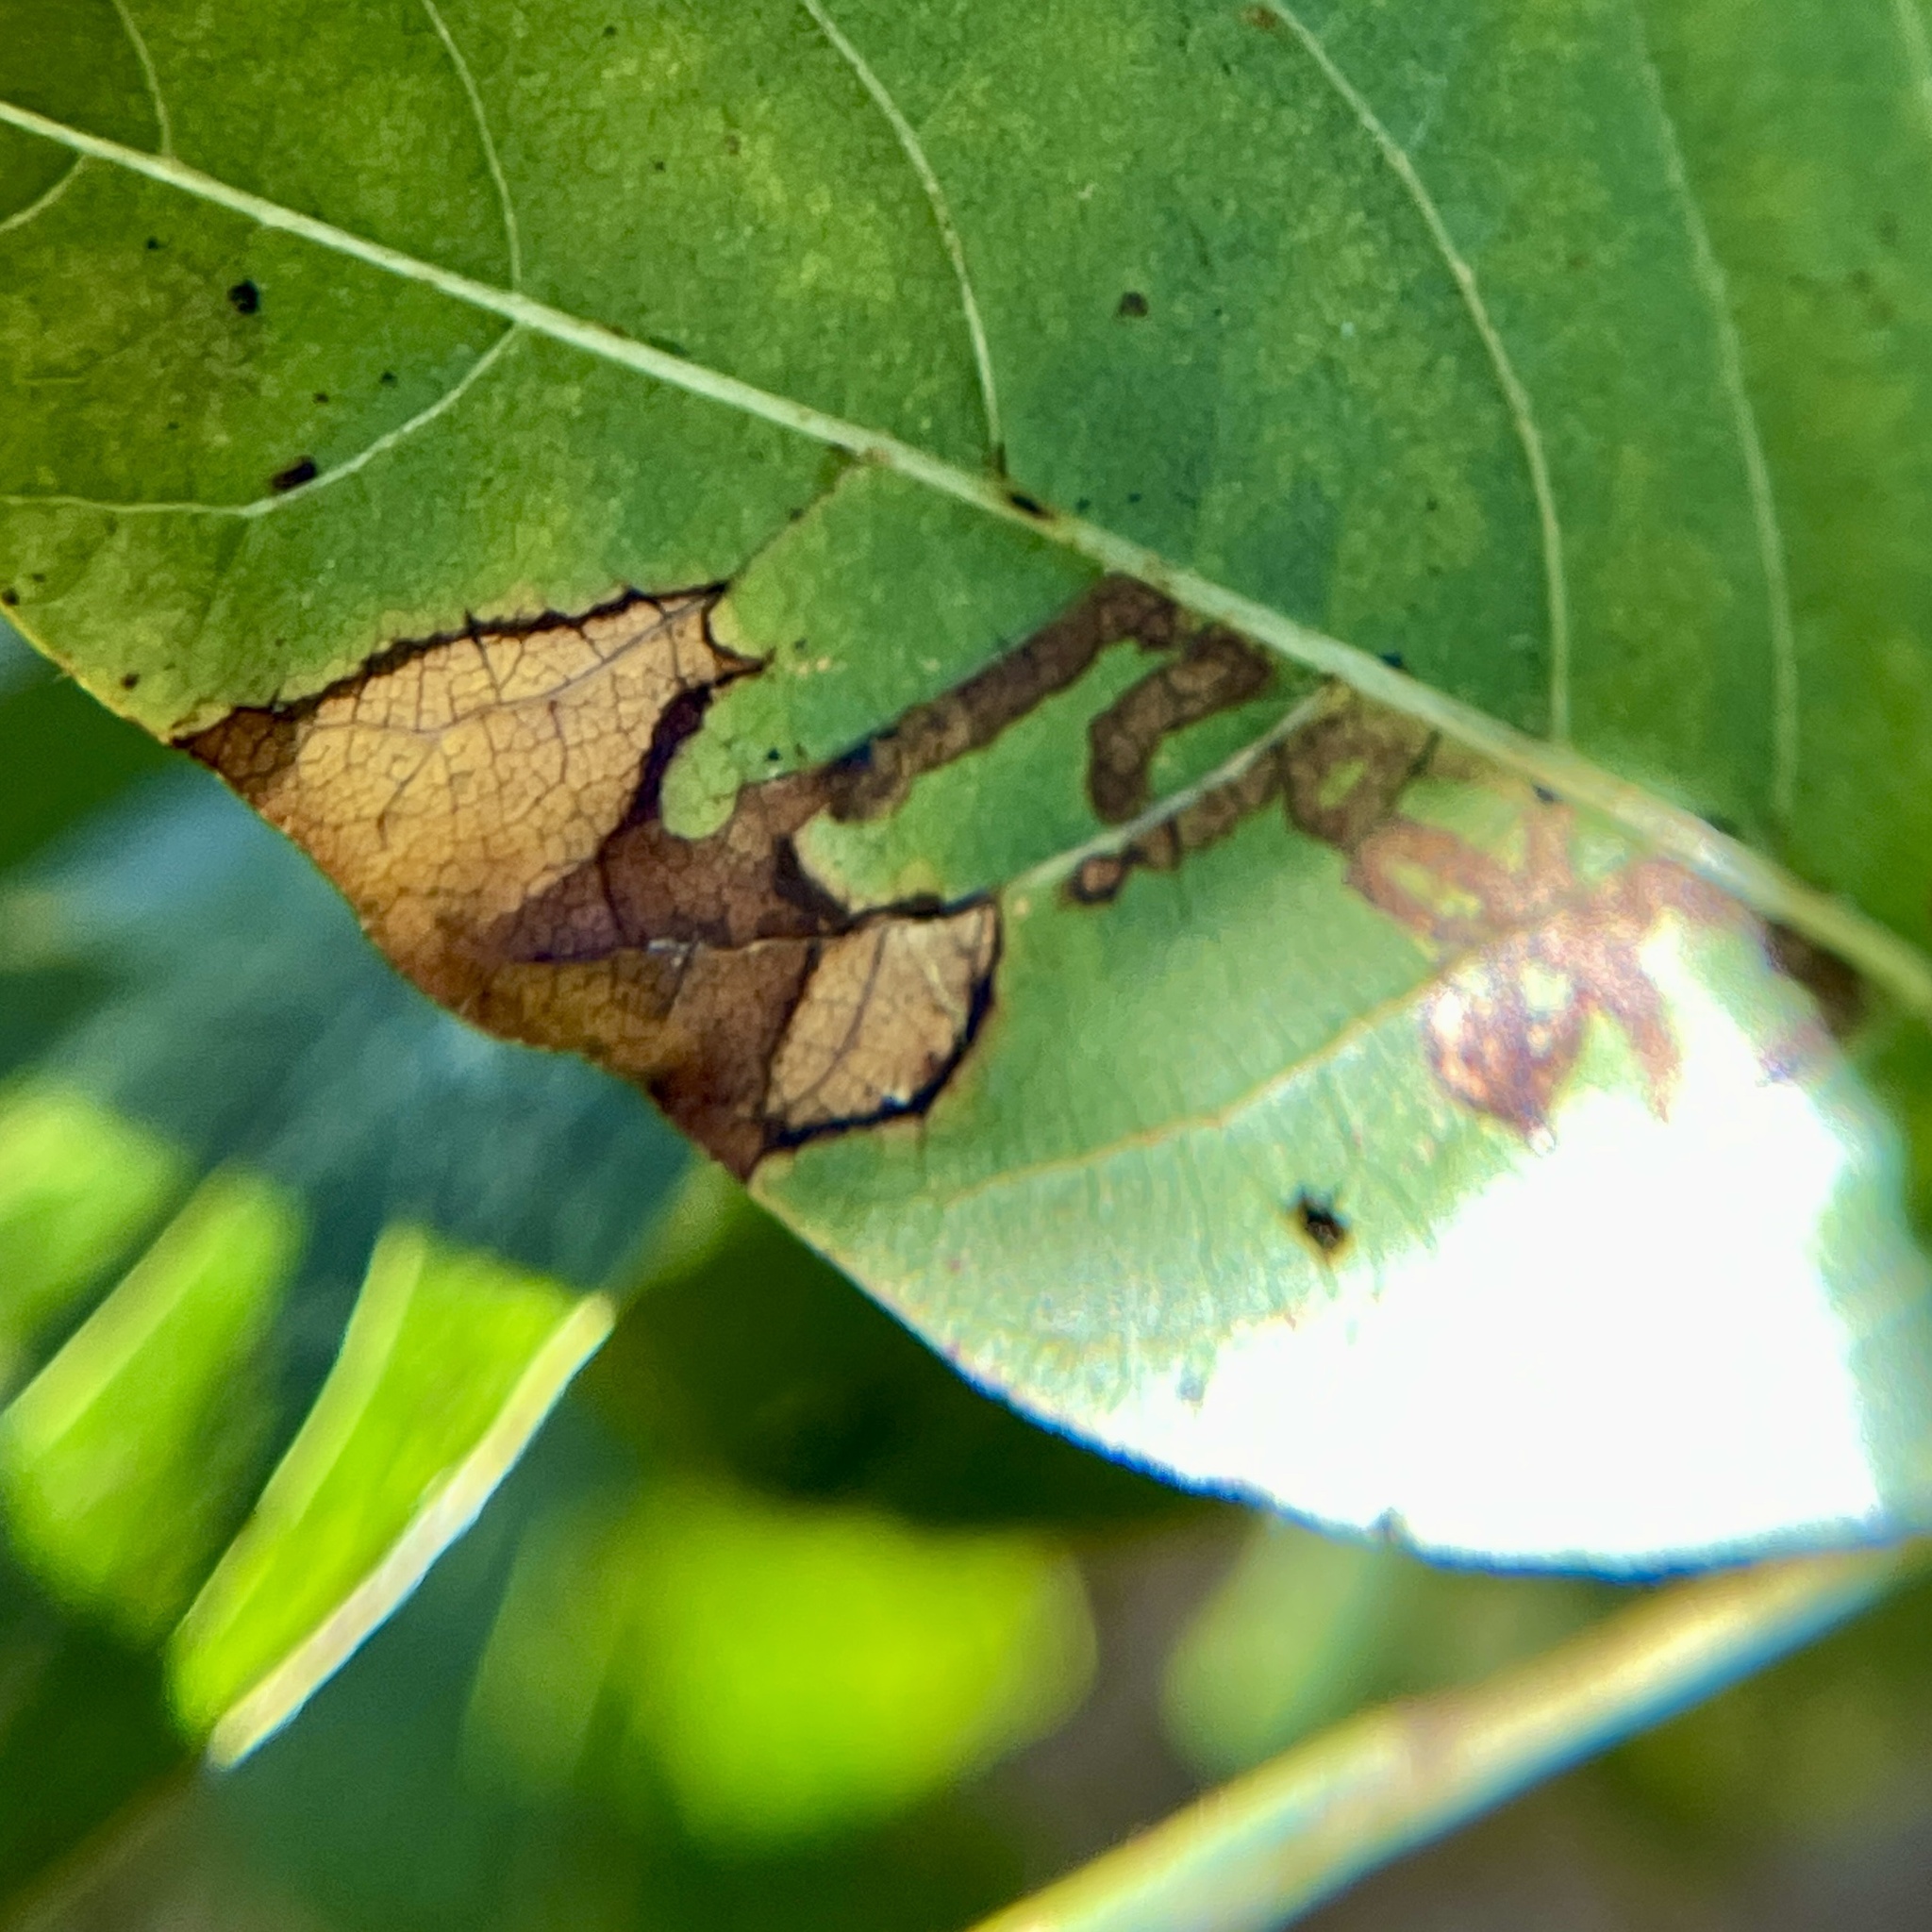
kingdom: Animalia
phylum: Arthropoda
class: Insecta
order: Lepidoptera
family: Nepticulidae
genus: Stigmella
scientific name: Stigmella rhoifoliella
